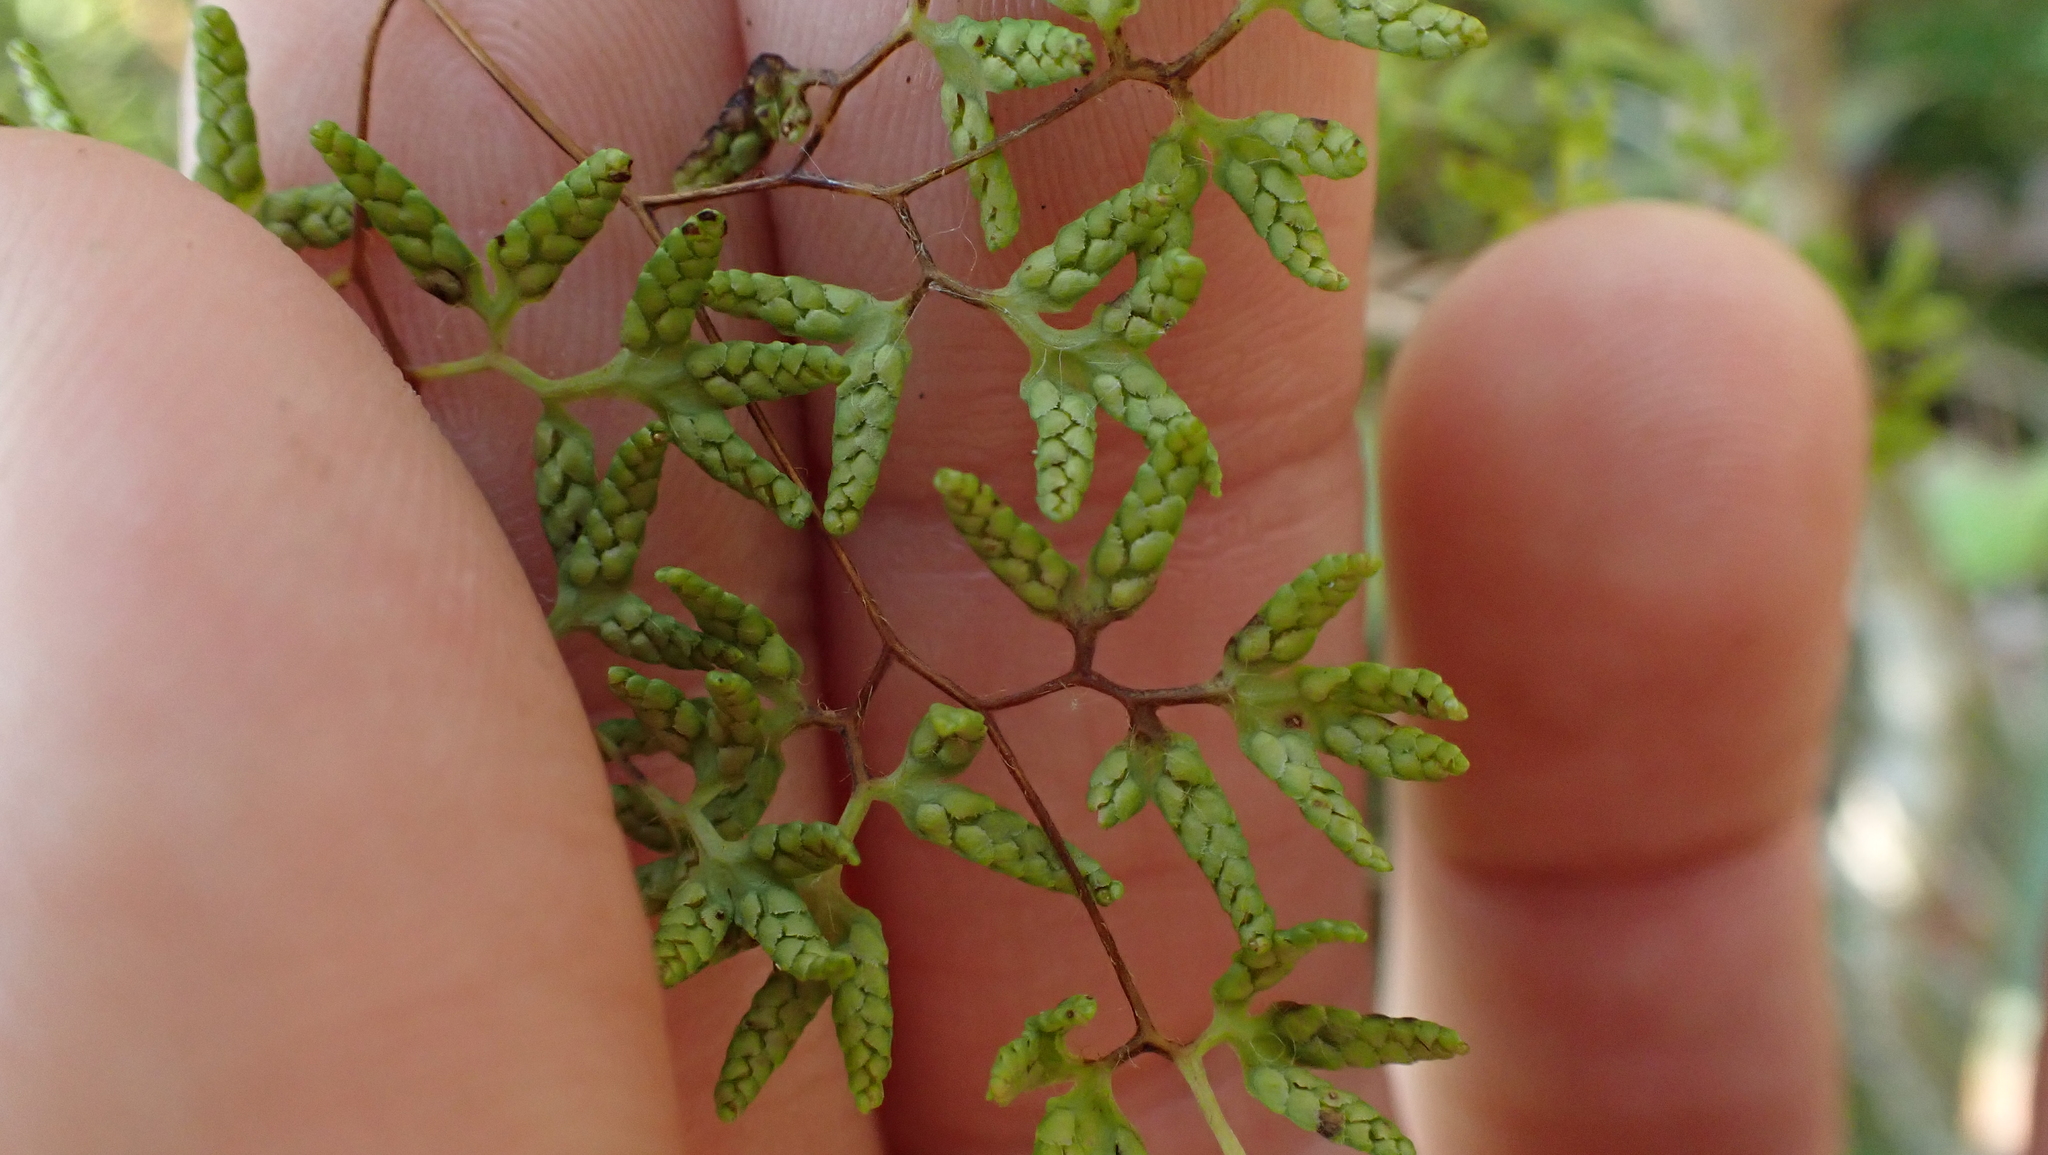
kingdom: Plantae
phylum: Tracheophyta
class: Polypodiopsida
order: Schizaeales
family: Lygodiaceae
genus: Lygodium
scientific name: Lygodium palmatum
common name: American climbing fern
